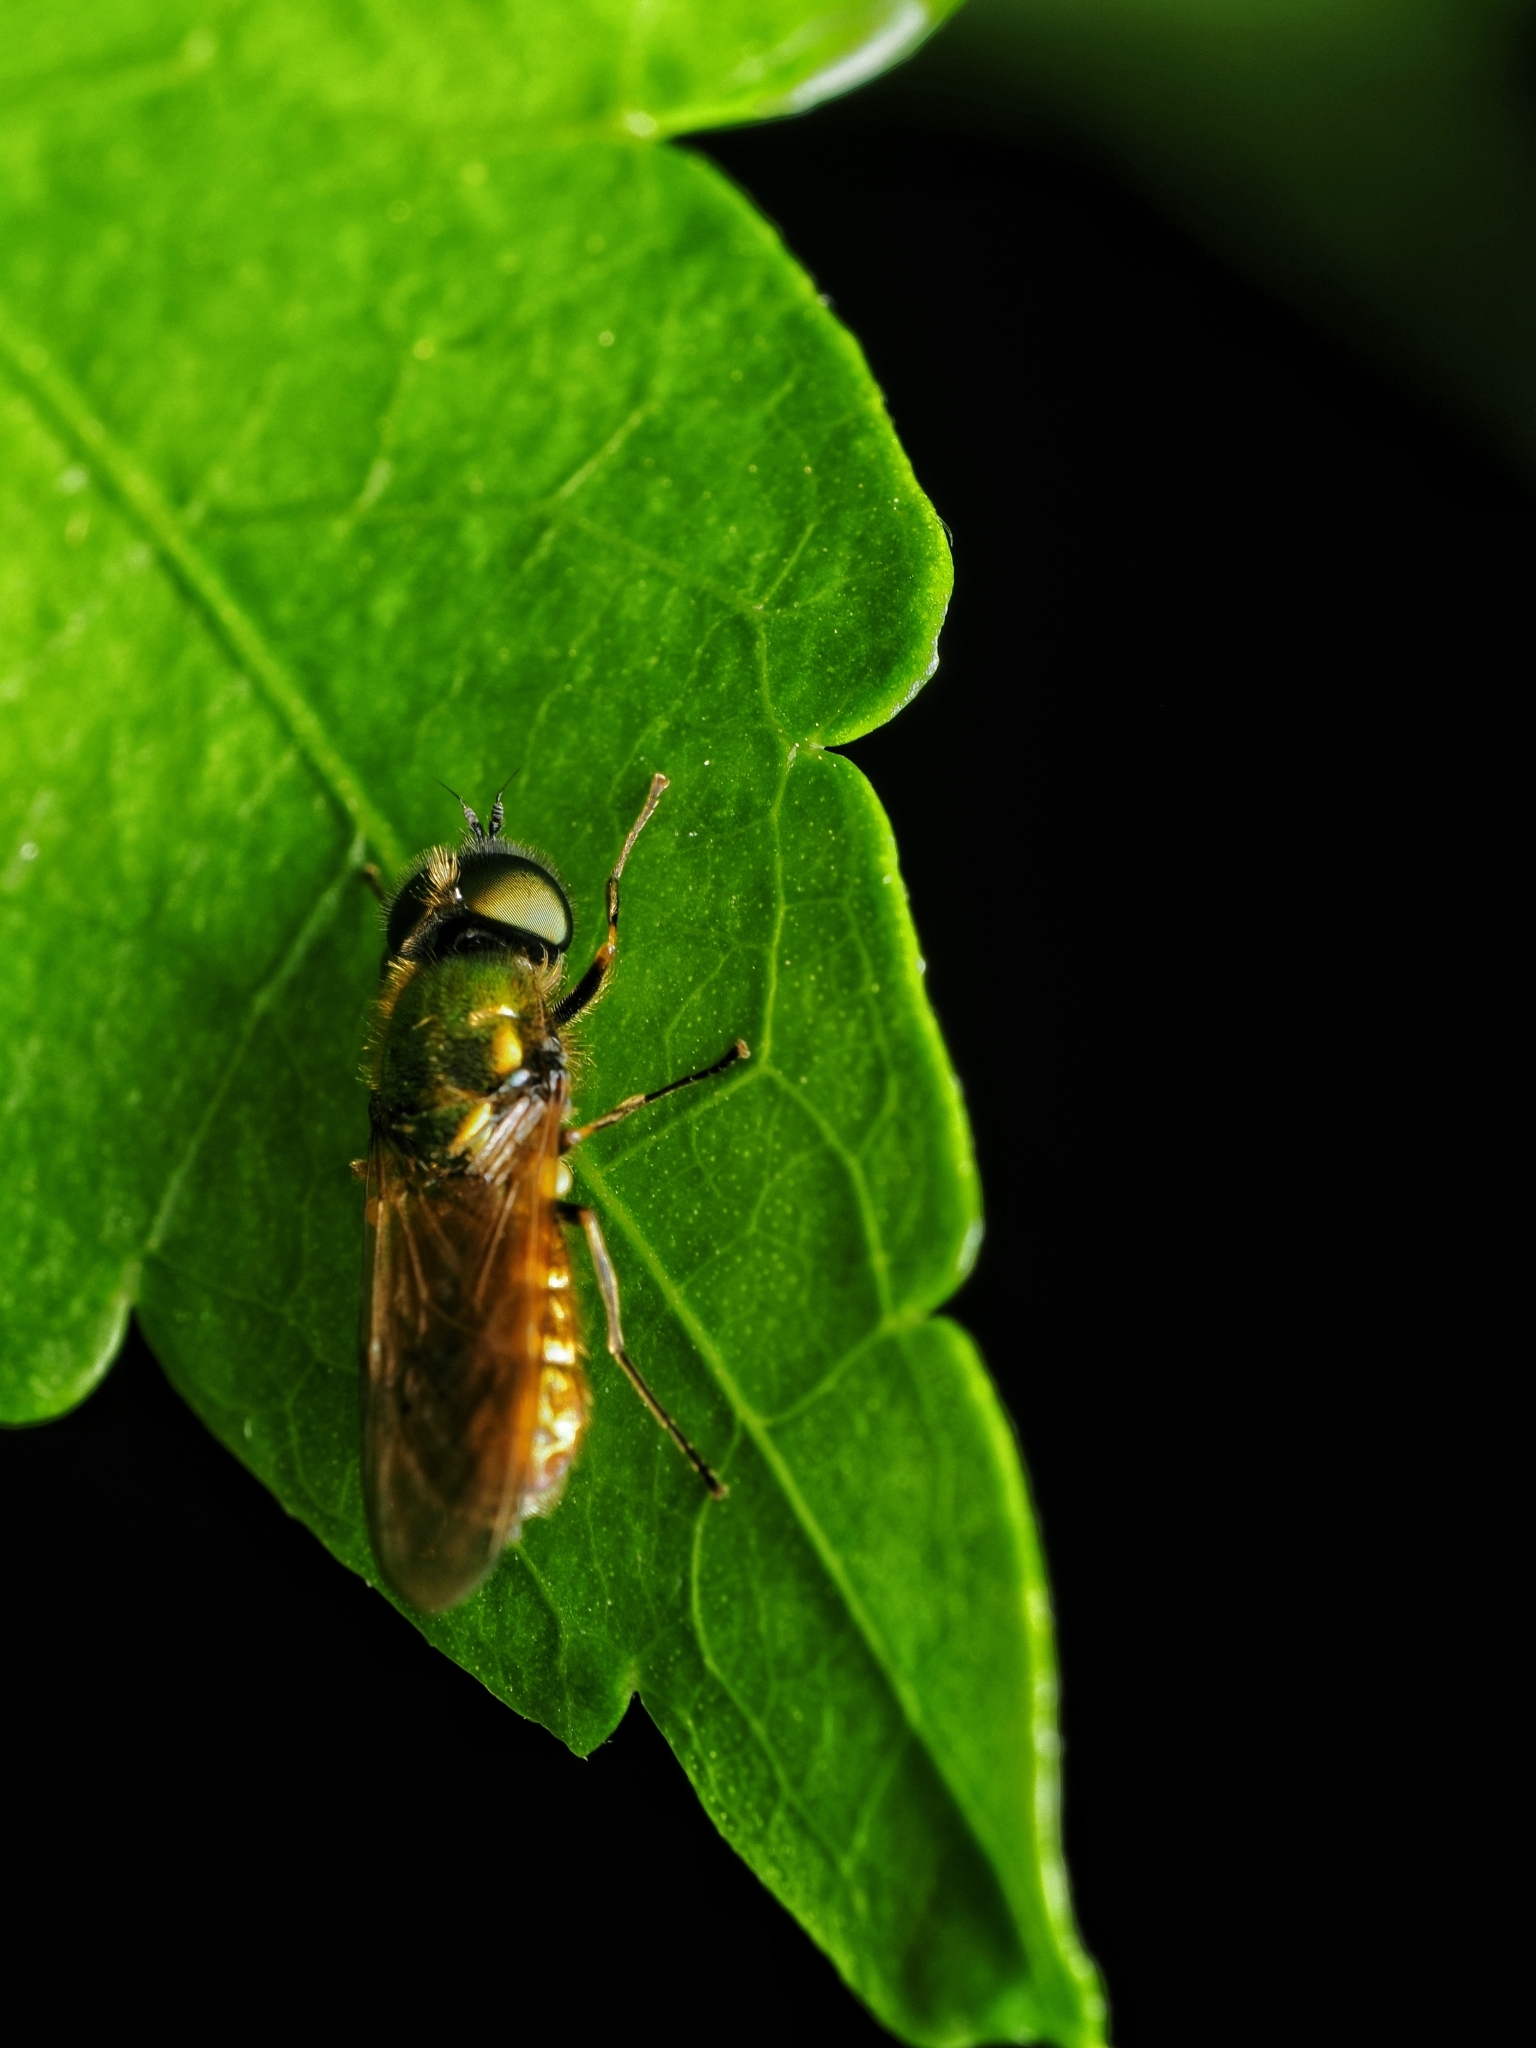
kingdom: Animalia
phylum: Arthropoda
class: Insecta
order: Diptera
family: Stratiomyidae
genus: Chloromyia
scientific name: Chloromyia formosa
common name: Soldier fly
